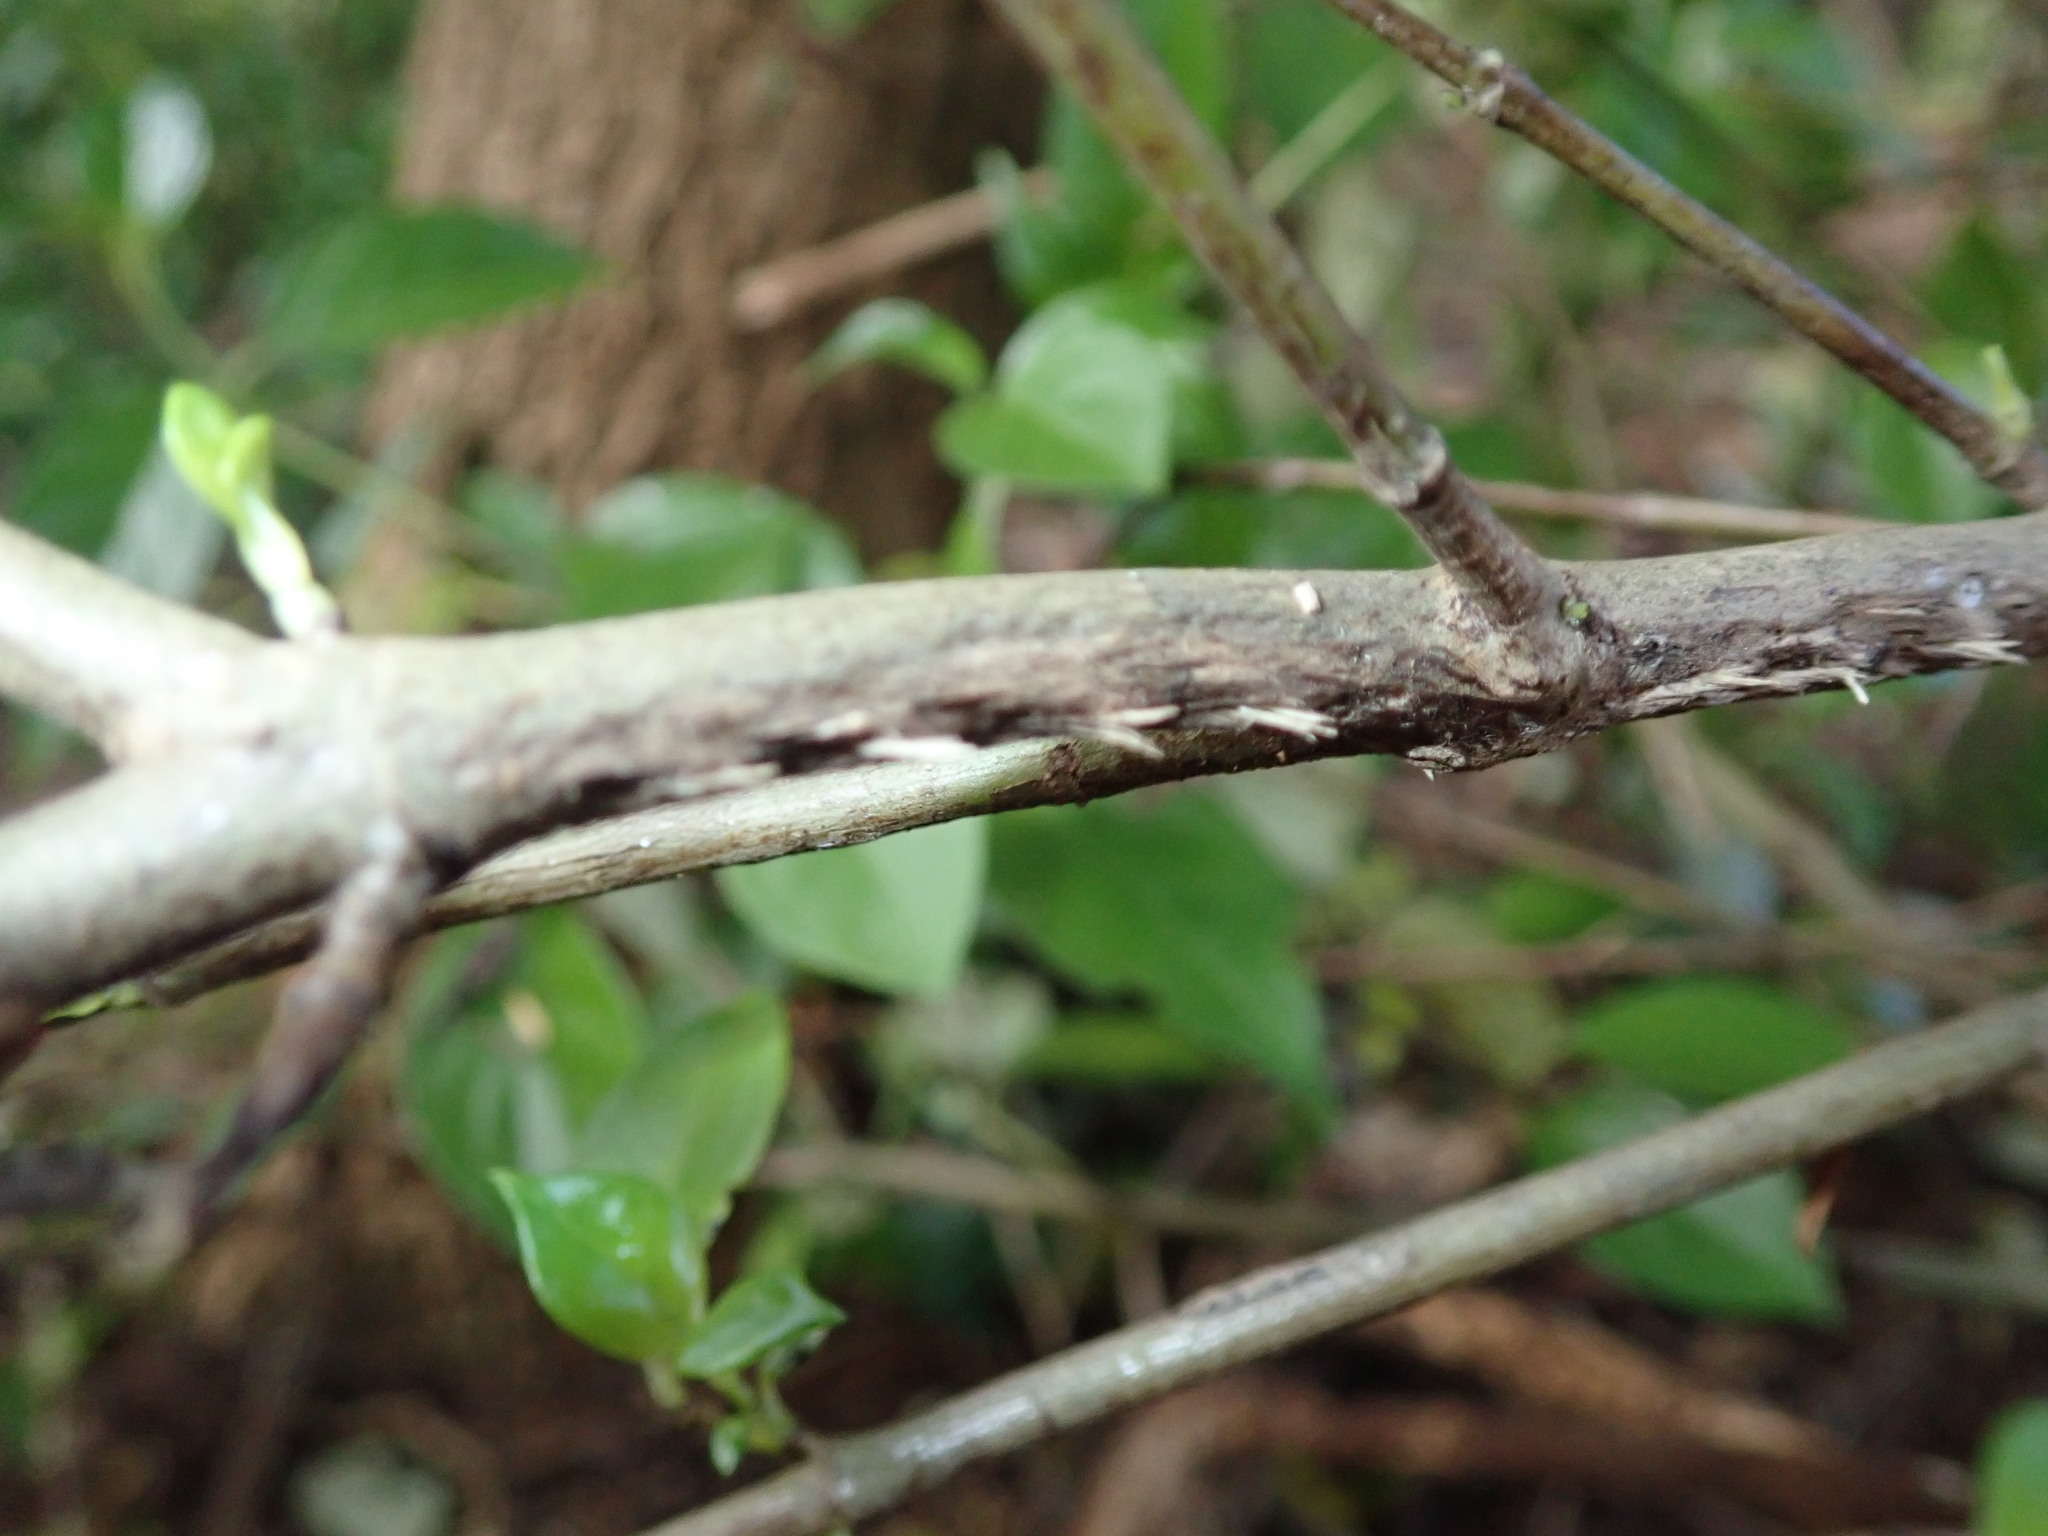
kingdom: Plantae
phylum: Tracheophyta
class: Magnoliopsida
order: Gentianales
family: Loganiaceae
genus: Geniostoma
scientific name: Geniostoma ligustrifolium
